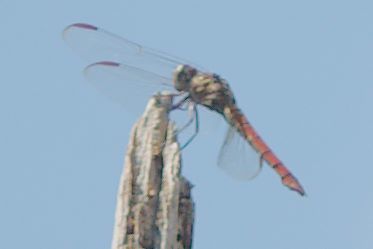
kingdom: Animalia
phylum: Arthropoda
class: Insecta
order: Odonata
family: Libellulidae
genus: Orthemis
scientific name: Orthemis ferruginea
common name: Roseate skimmer
